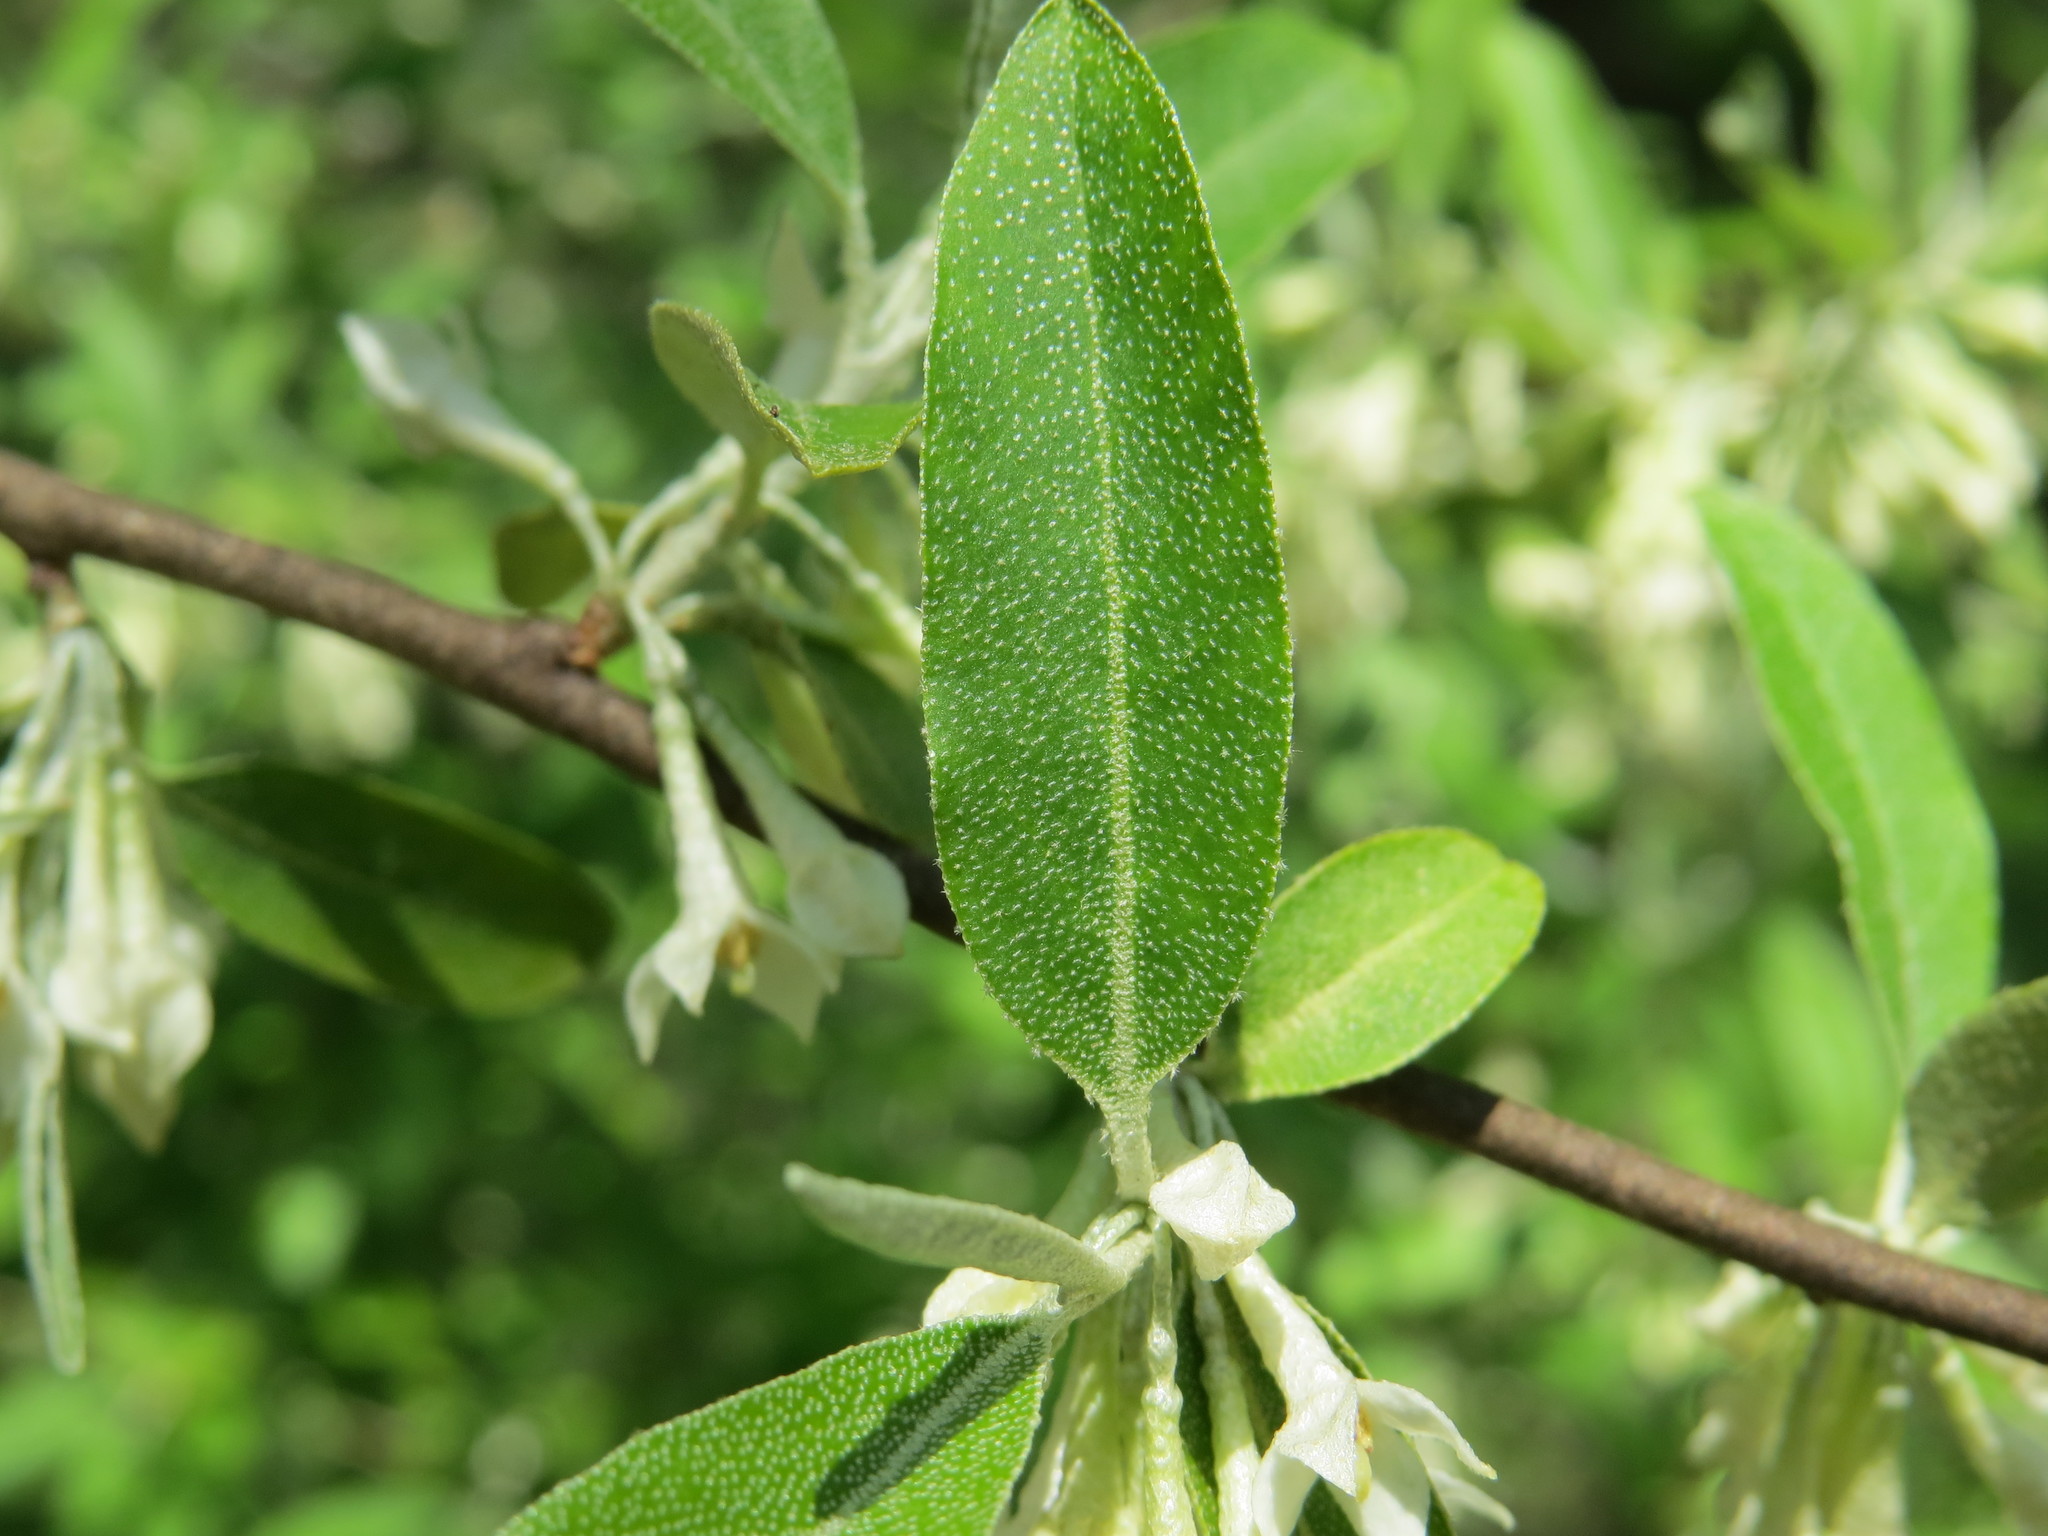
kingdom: Plantae
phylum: Tracheophyta
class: Magnoliopsida
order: Rosales
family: Elaeagnaceae
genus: Elaeagnus
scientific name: Elaeagnus umbellata
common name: Autumn olive
